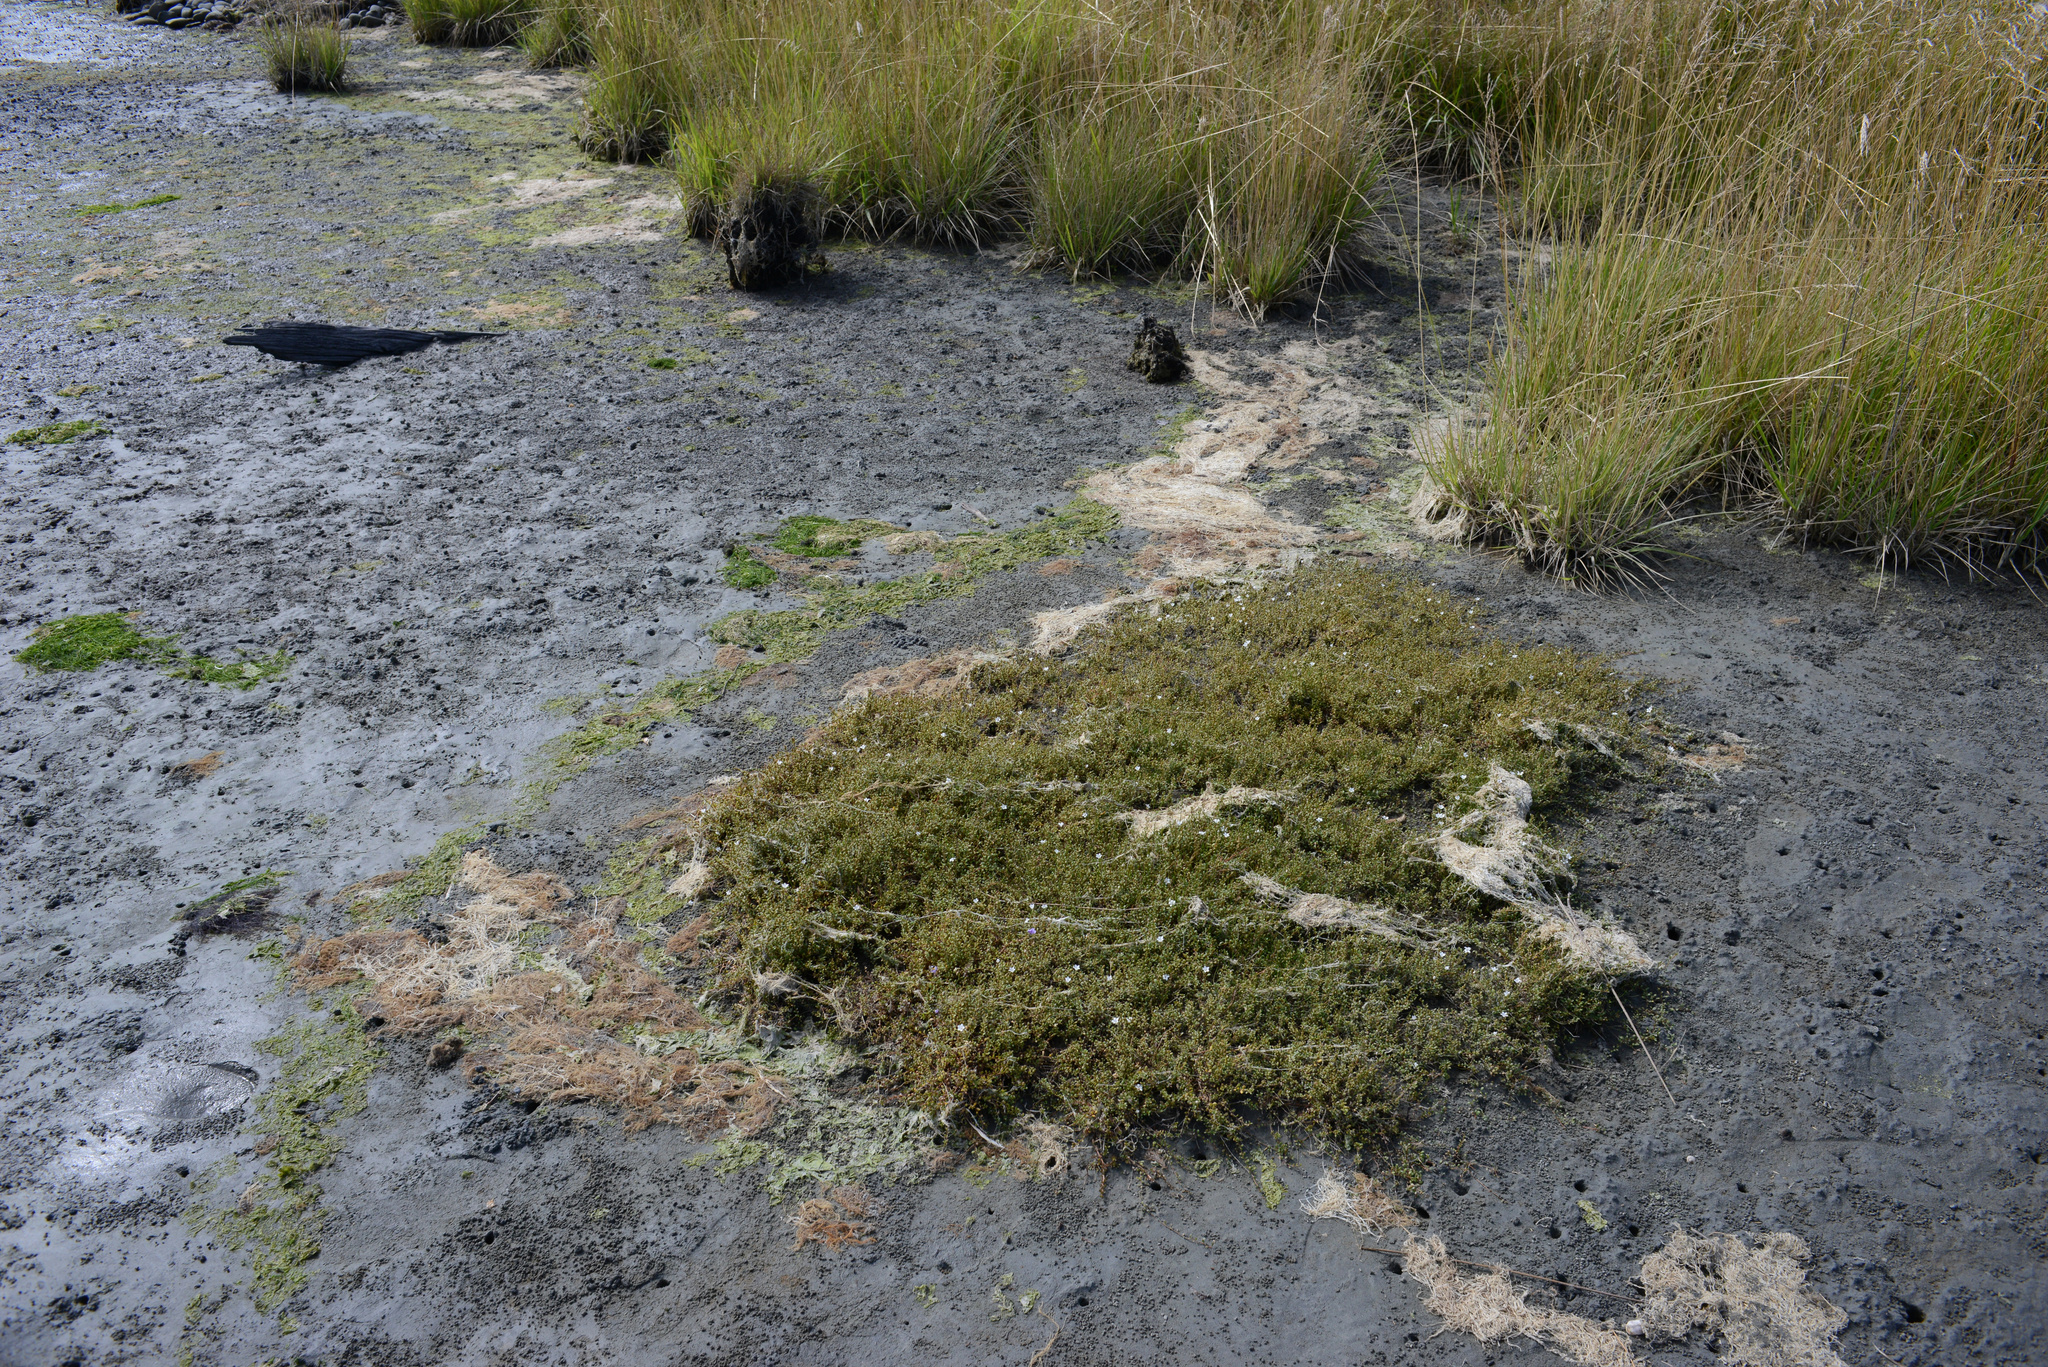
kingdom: Plantae
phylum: Tracheophyta
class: Magnoliopsida
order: Lamiales
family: Phrymaceae
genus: Thyridia
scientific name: Thyridia repens
